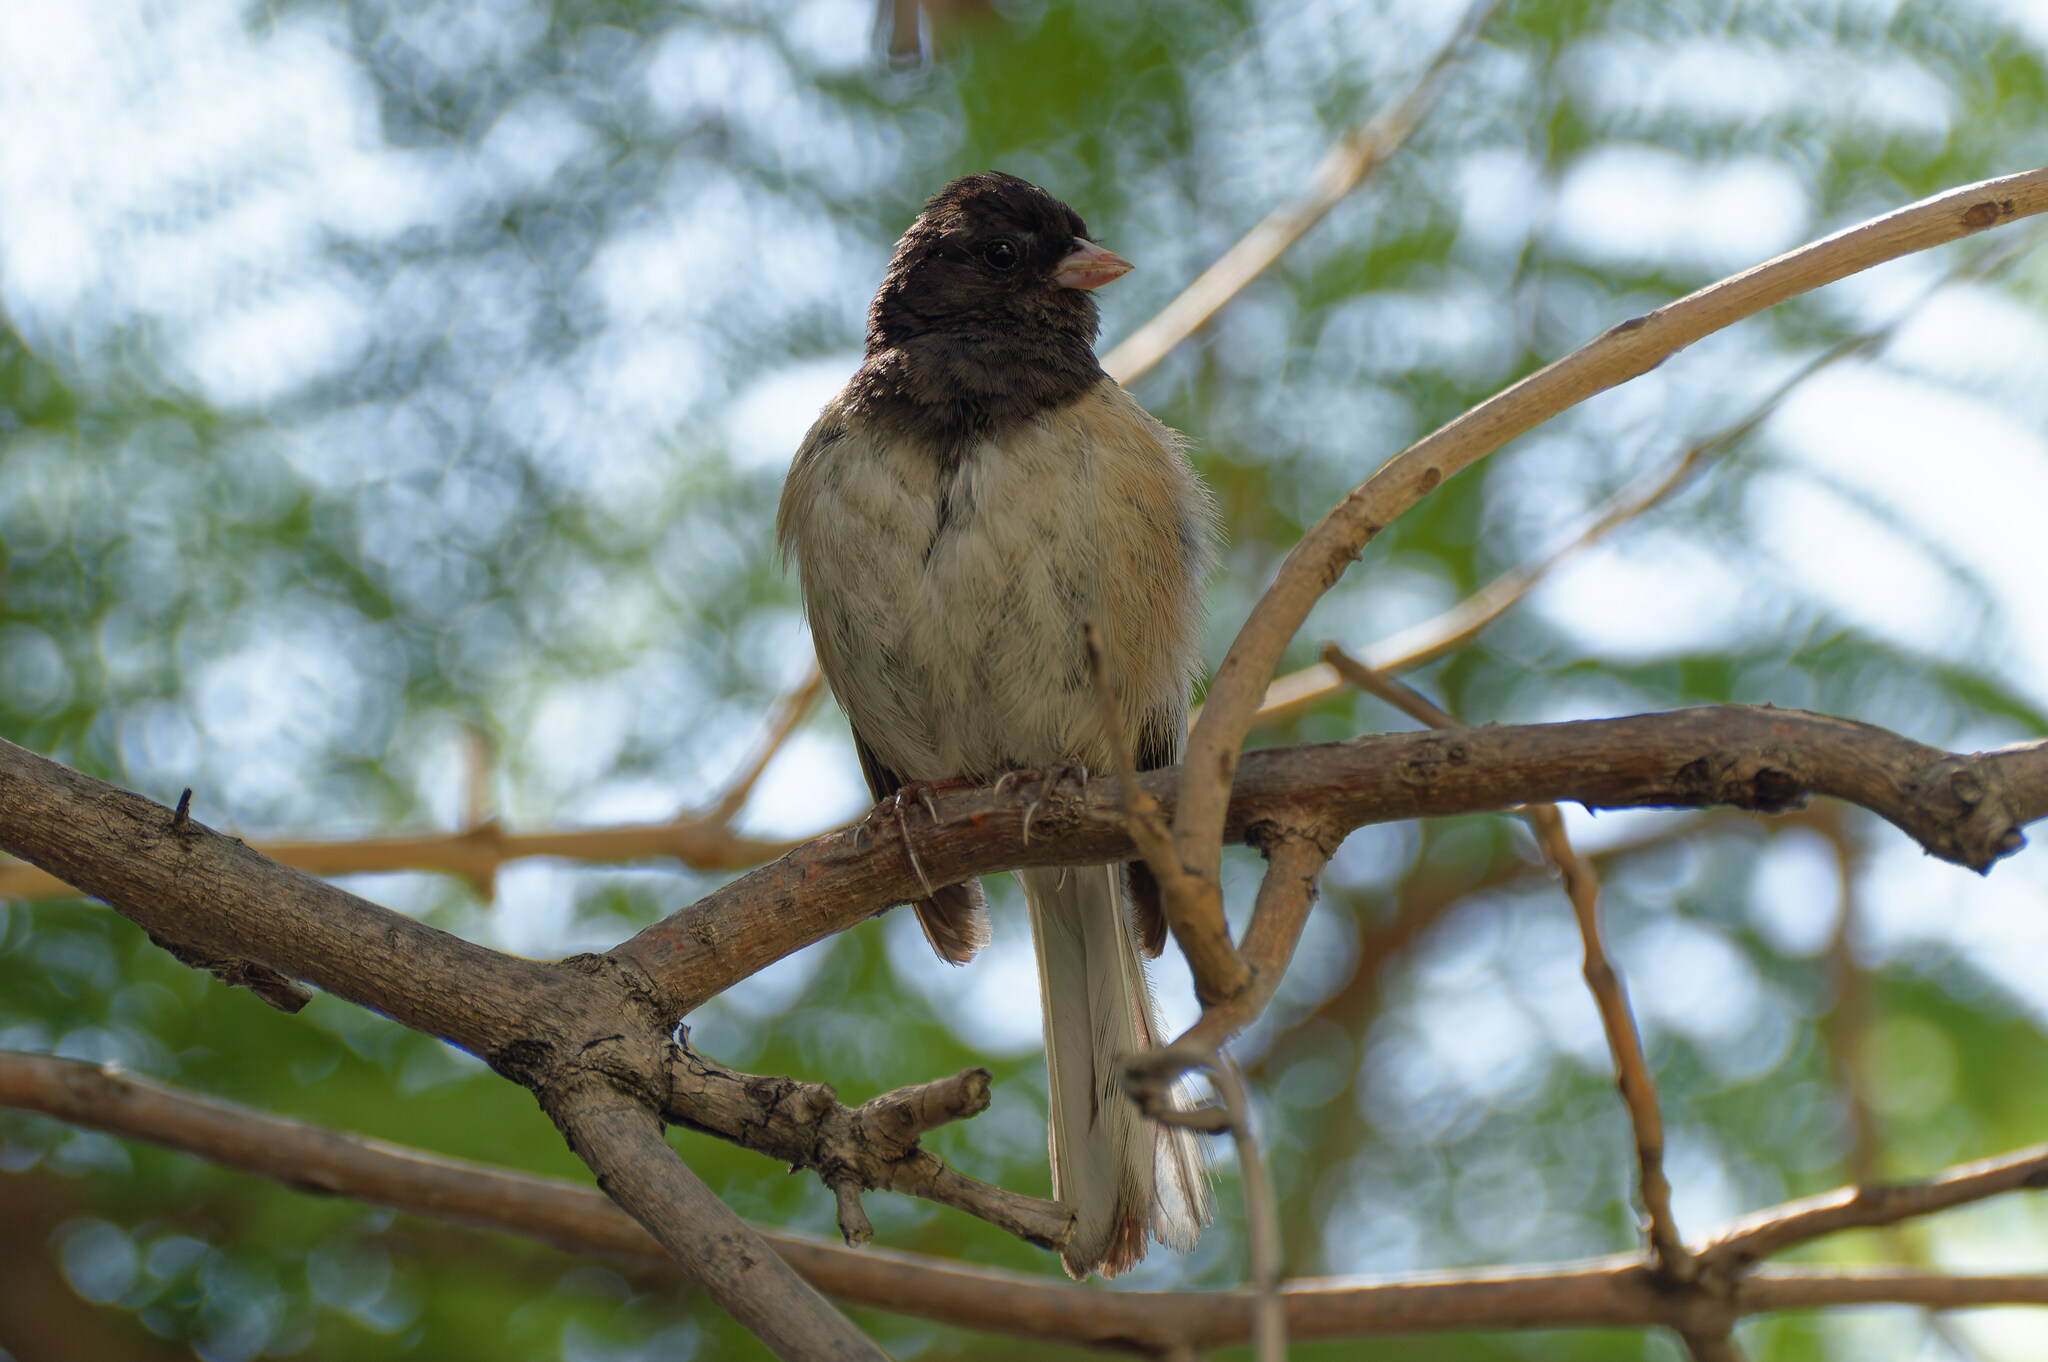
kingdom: Animalia
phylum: Chordata
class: Aves
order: Passeriformes
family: Passerellidae
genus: Junco
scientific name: Junco hyemalis
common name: Dark-eyed junco
